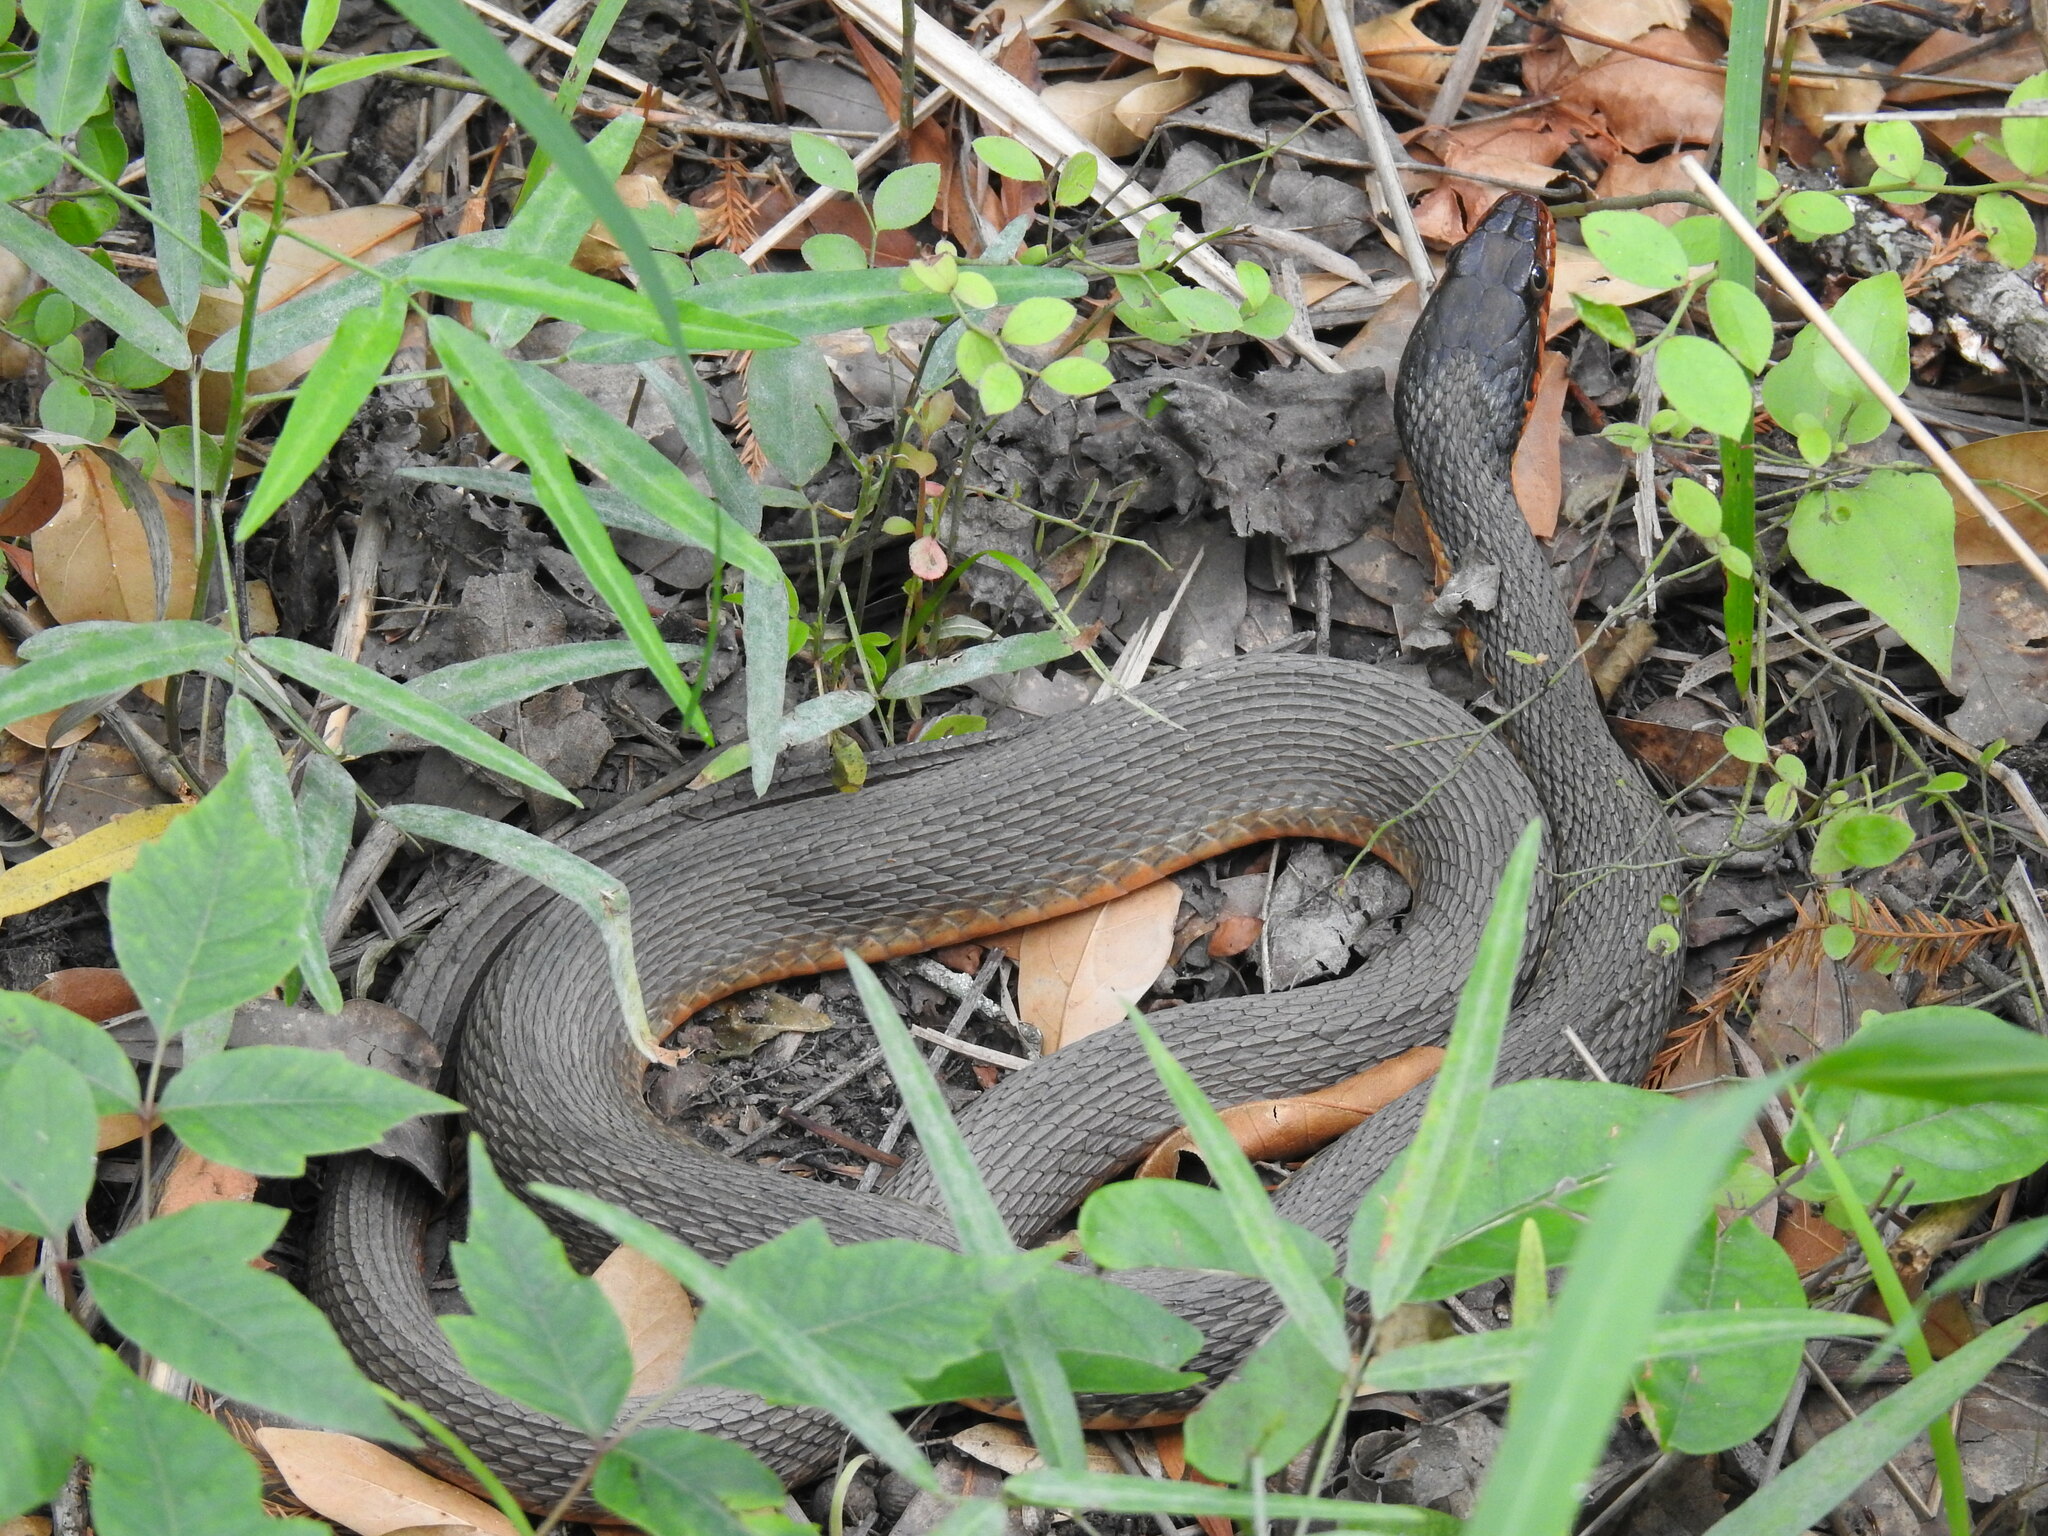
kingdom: Animalia
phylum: Chordata
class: Squamata
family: Colubridae
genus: Nerodia
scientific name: Nerodia erythrogaster
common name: Plainbelly water snake
